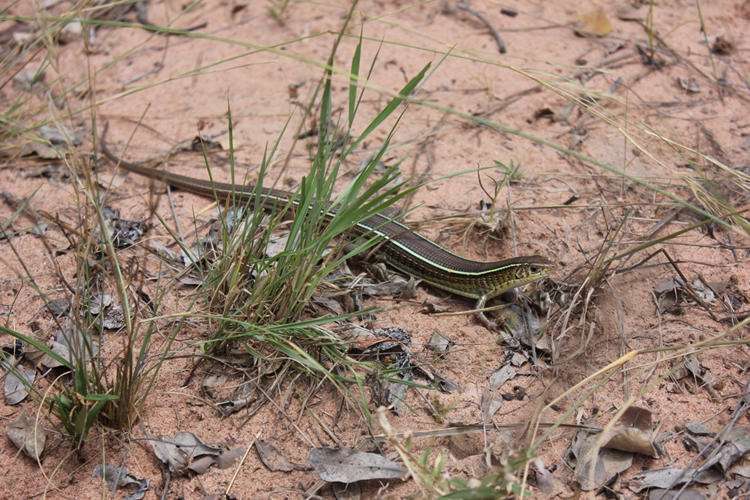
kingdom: Animalia
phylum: Chordata
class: Squamata
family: Gerrhosauridae
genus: Gerrhosaurus
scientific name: Gerrhosaurus flavigularis
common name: Yellow-throated plated lizard
